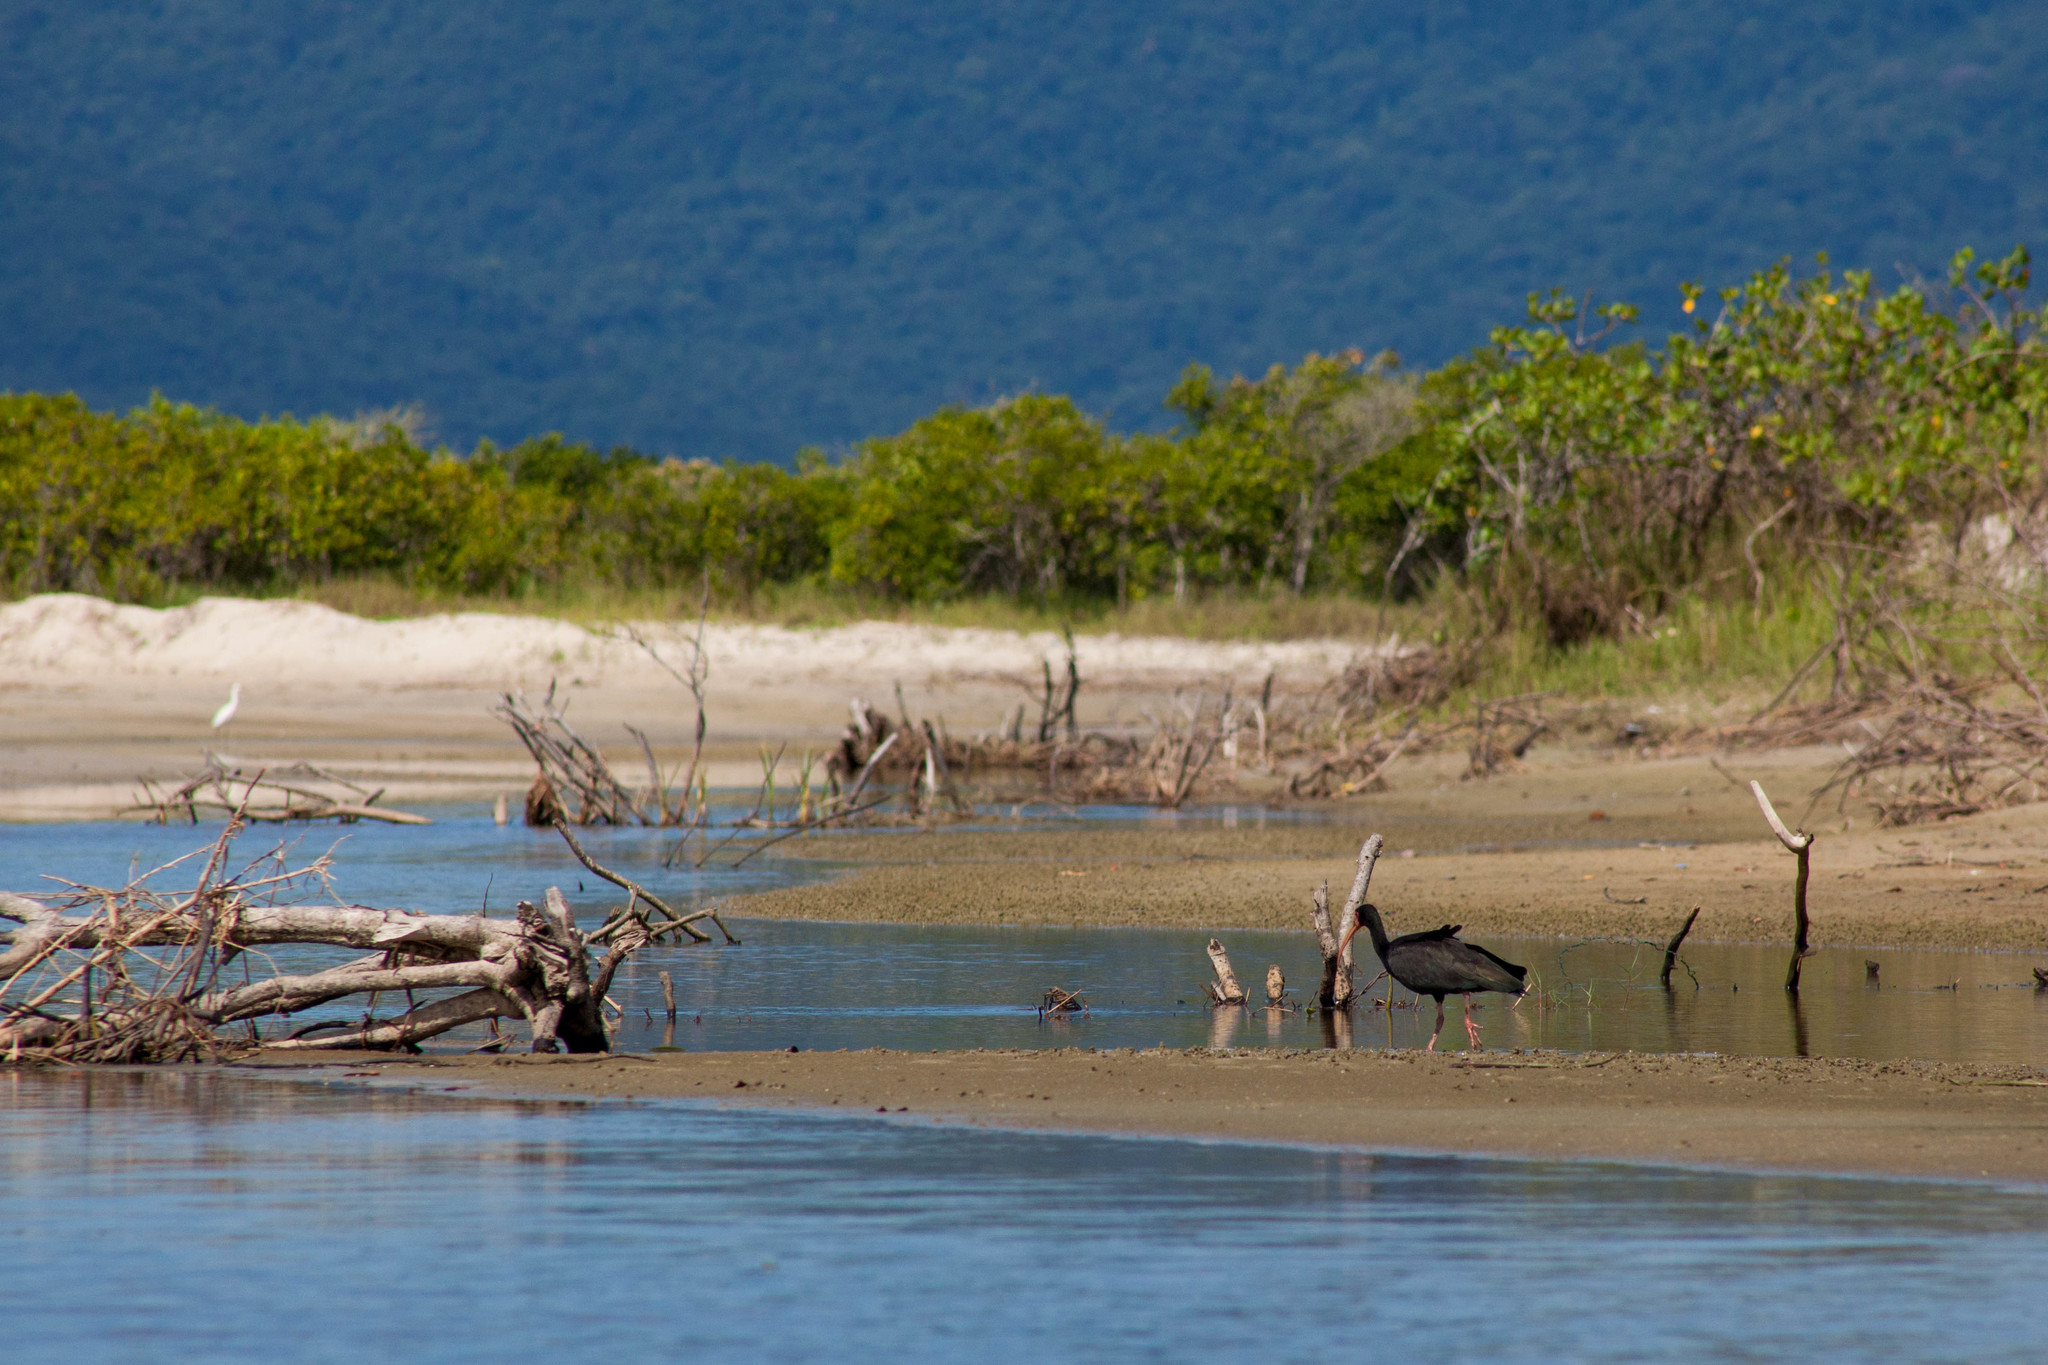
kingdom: Animalia
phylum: Chordata
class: Aves
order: Pelecaniformes
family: Threskiornithidae
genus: Phimosus
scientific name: Phimosus infuscatus
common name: Bare-faced ibis
